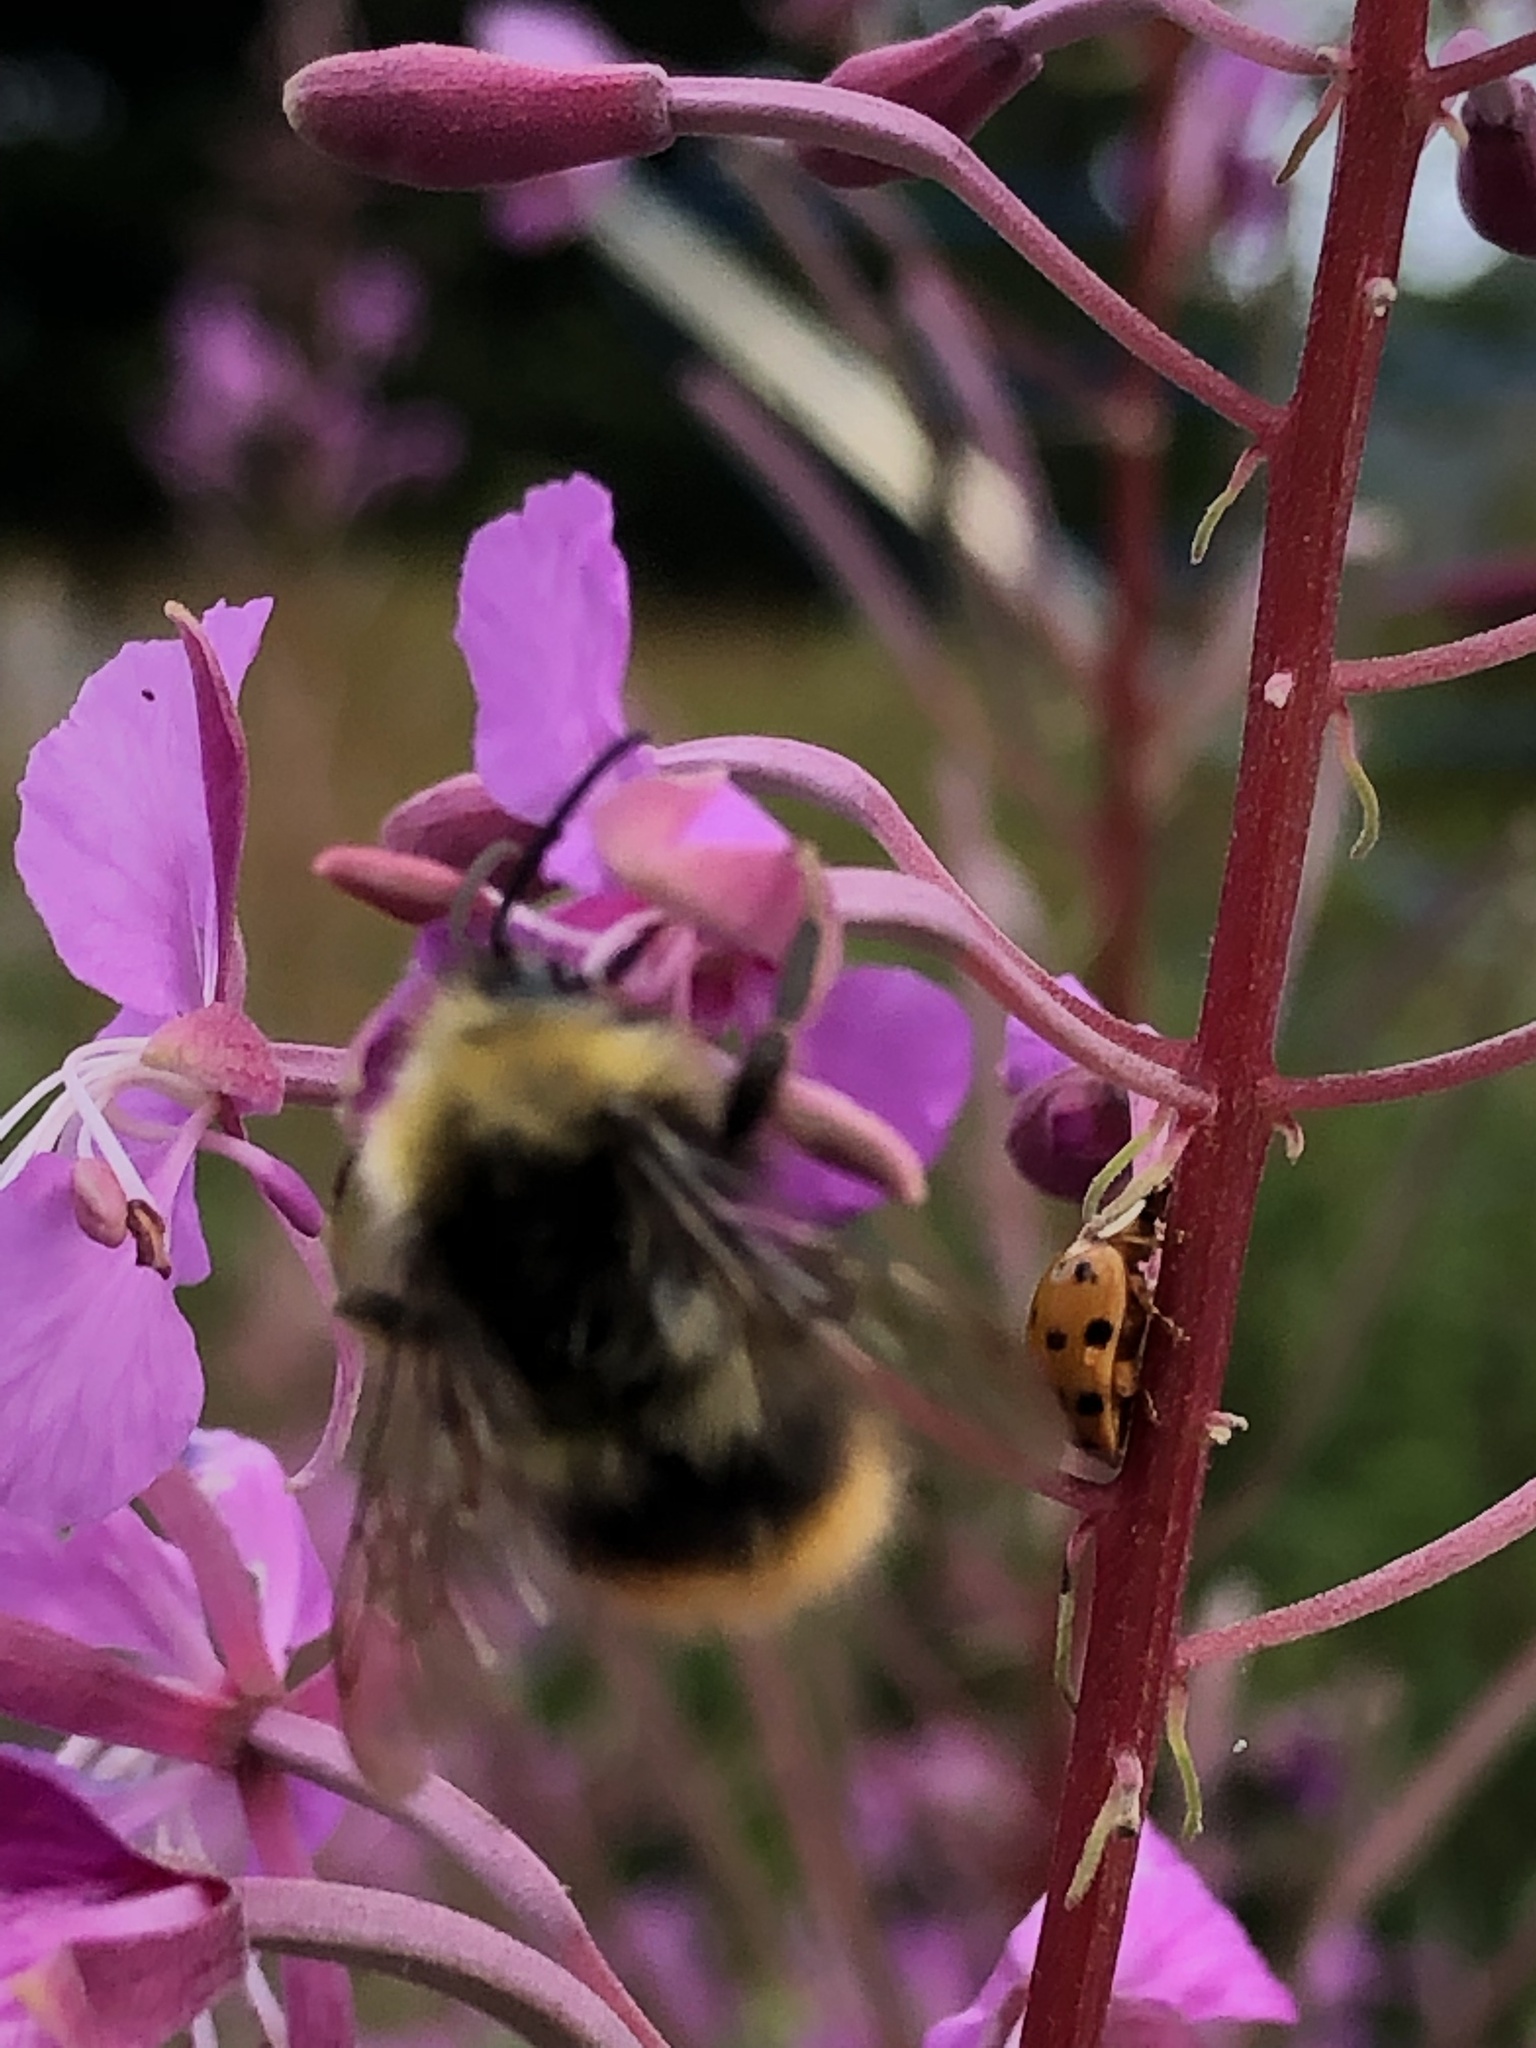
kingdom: Animalia
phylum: Arthropoda
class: Insecta
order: Hymenoptera
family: Apidae
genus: Bombus
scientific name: Bombus pratorum
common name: Early humble-bee
